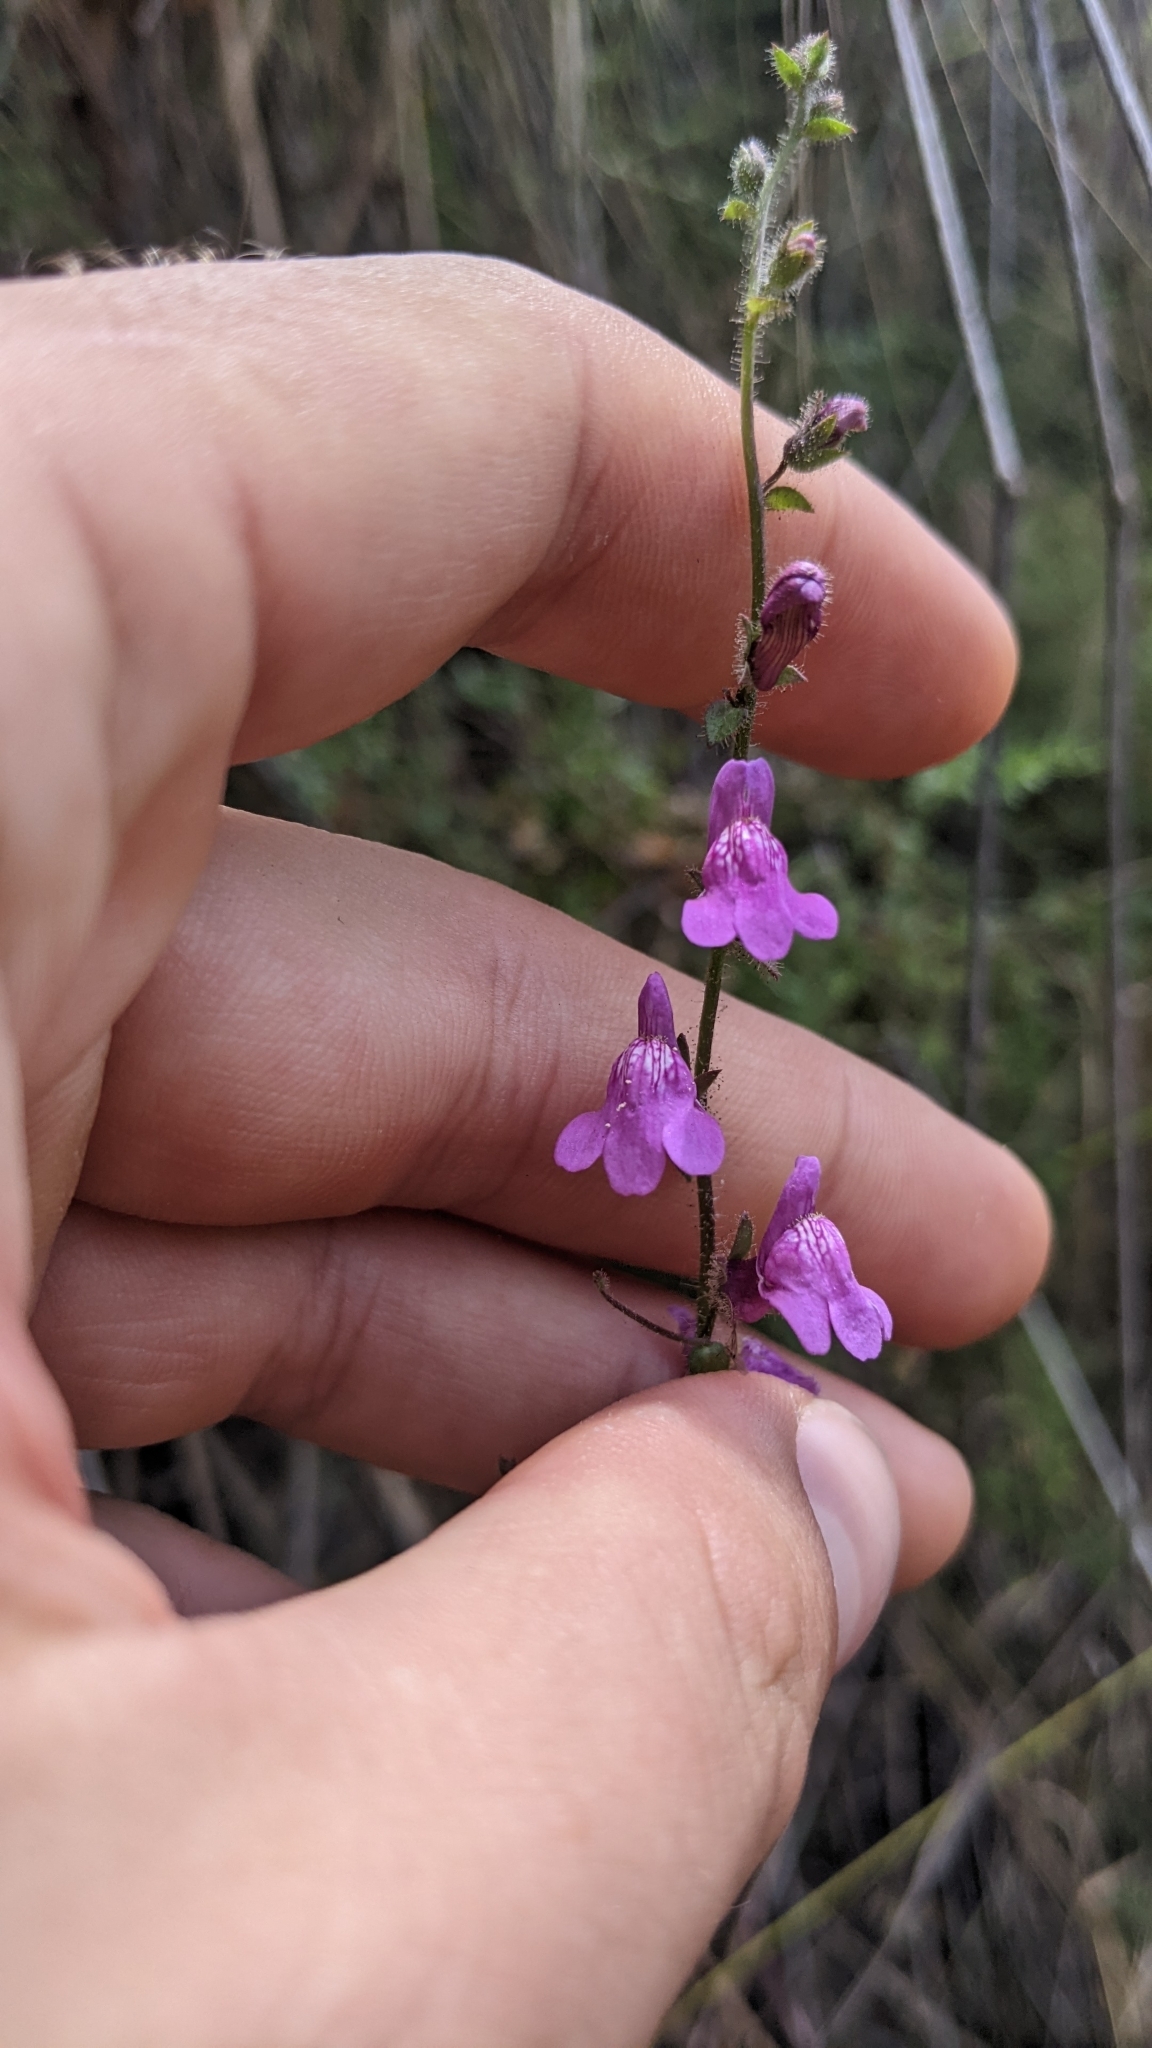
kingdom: Plantae
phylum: Tracheophyta
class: Magnoliopsida
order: Lamiales
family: Plantaginaceae
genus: Sairocarpus
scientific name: Sairocarpus nuttallianus
